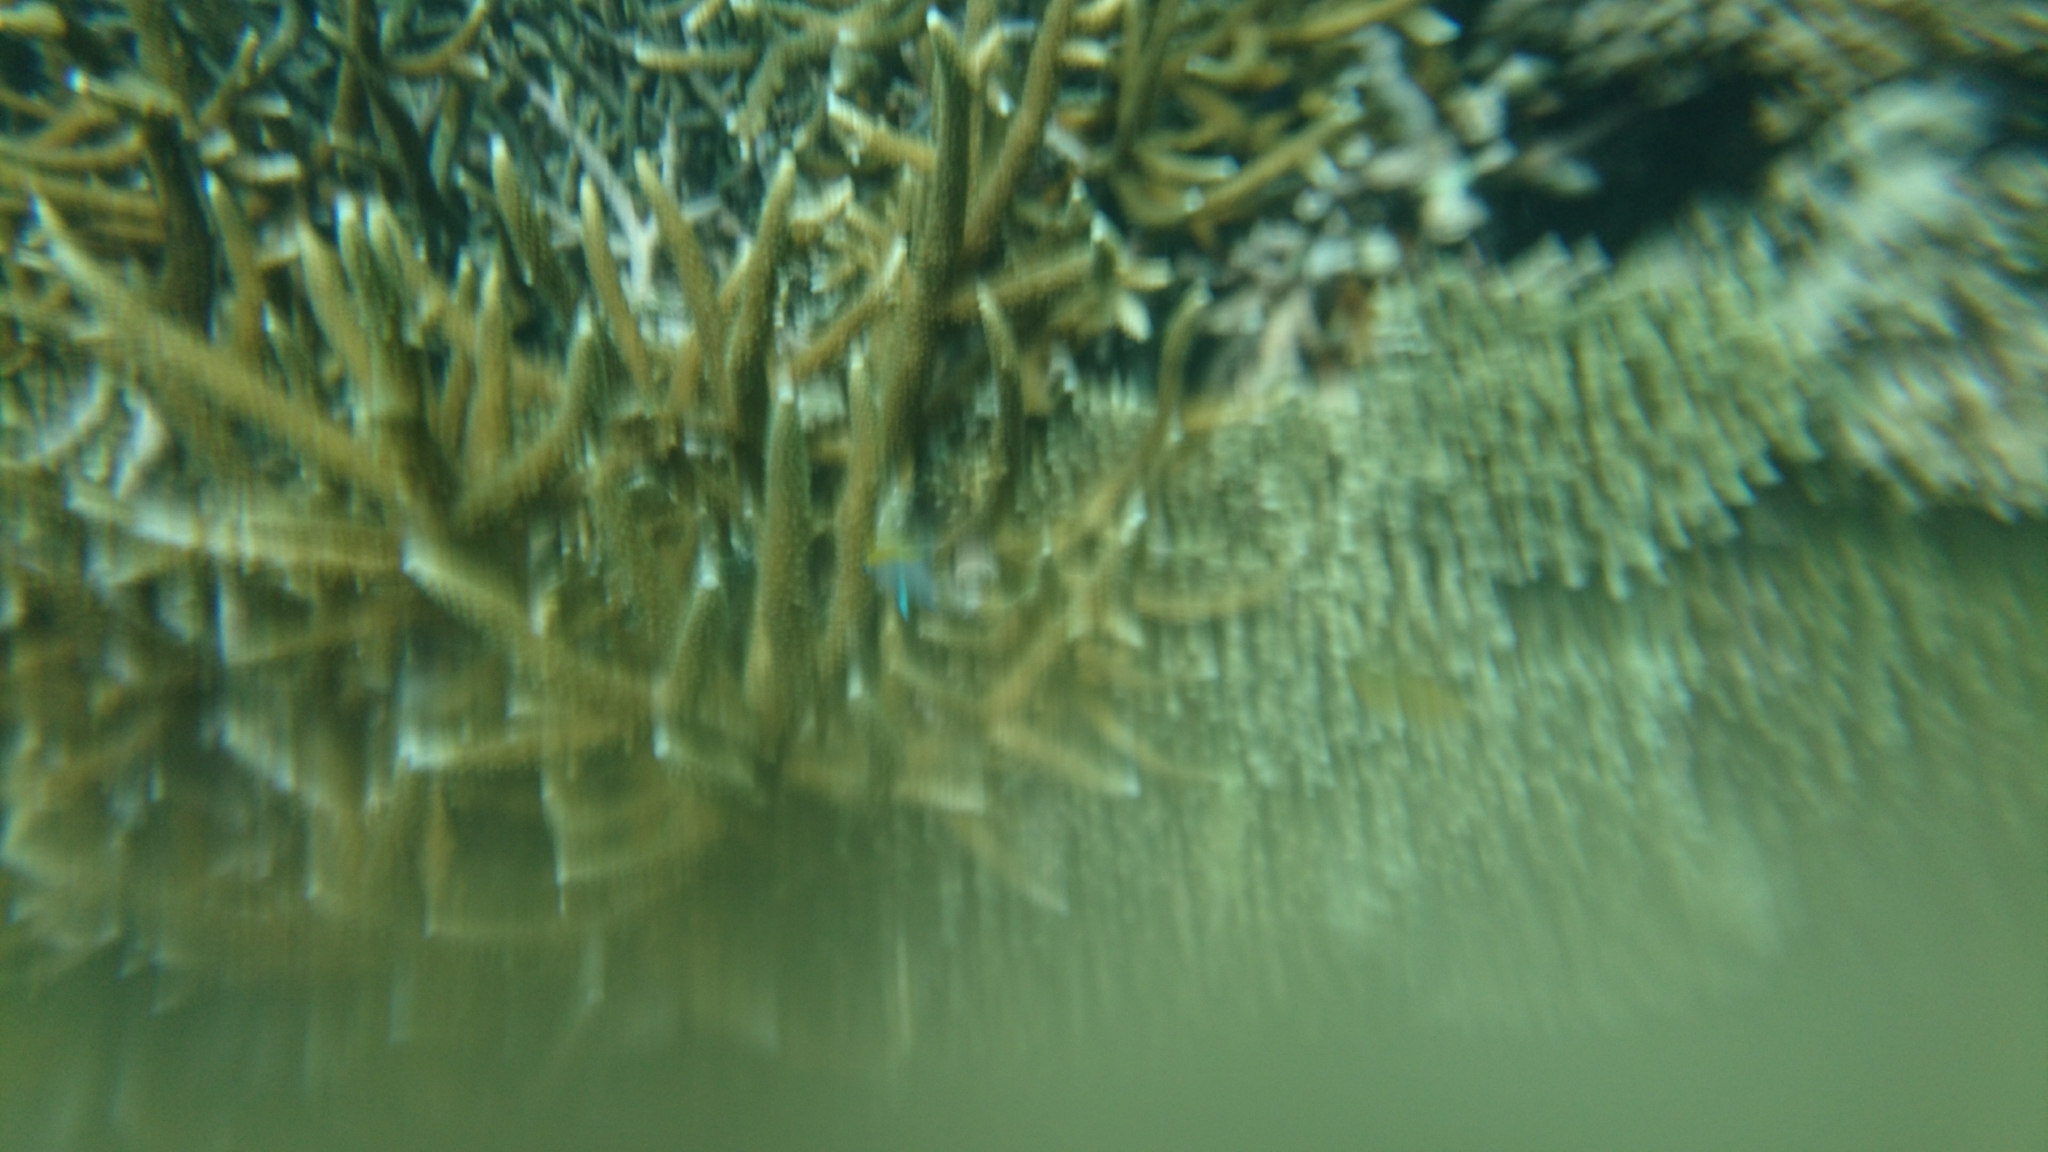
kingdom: Animalia
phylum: Chordata
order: Perciformes
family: Pomacentridae
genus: Neoglyphidodon
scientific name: Neoglyphidodon melas
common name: Black damsel
